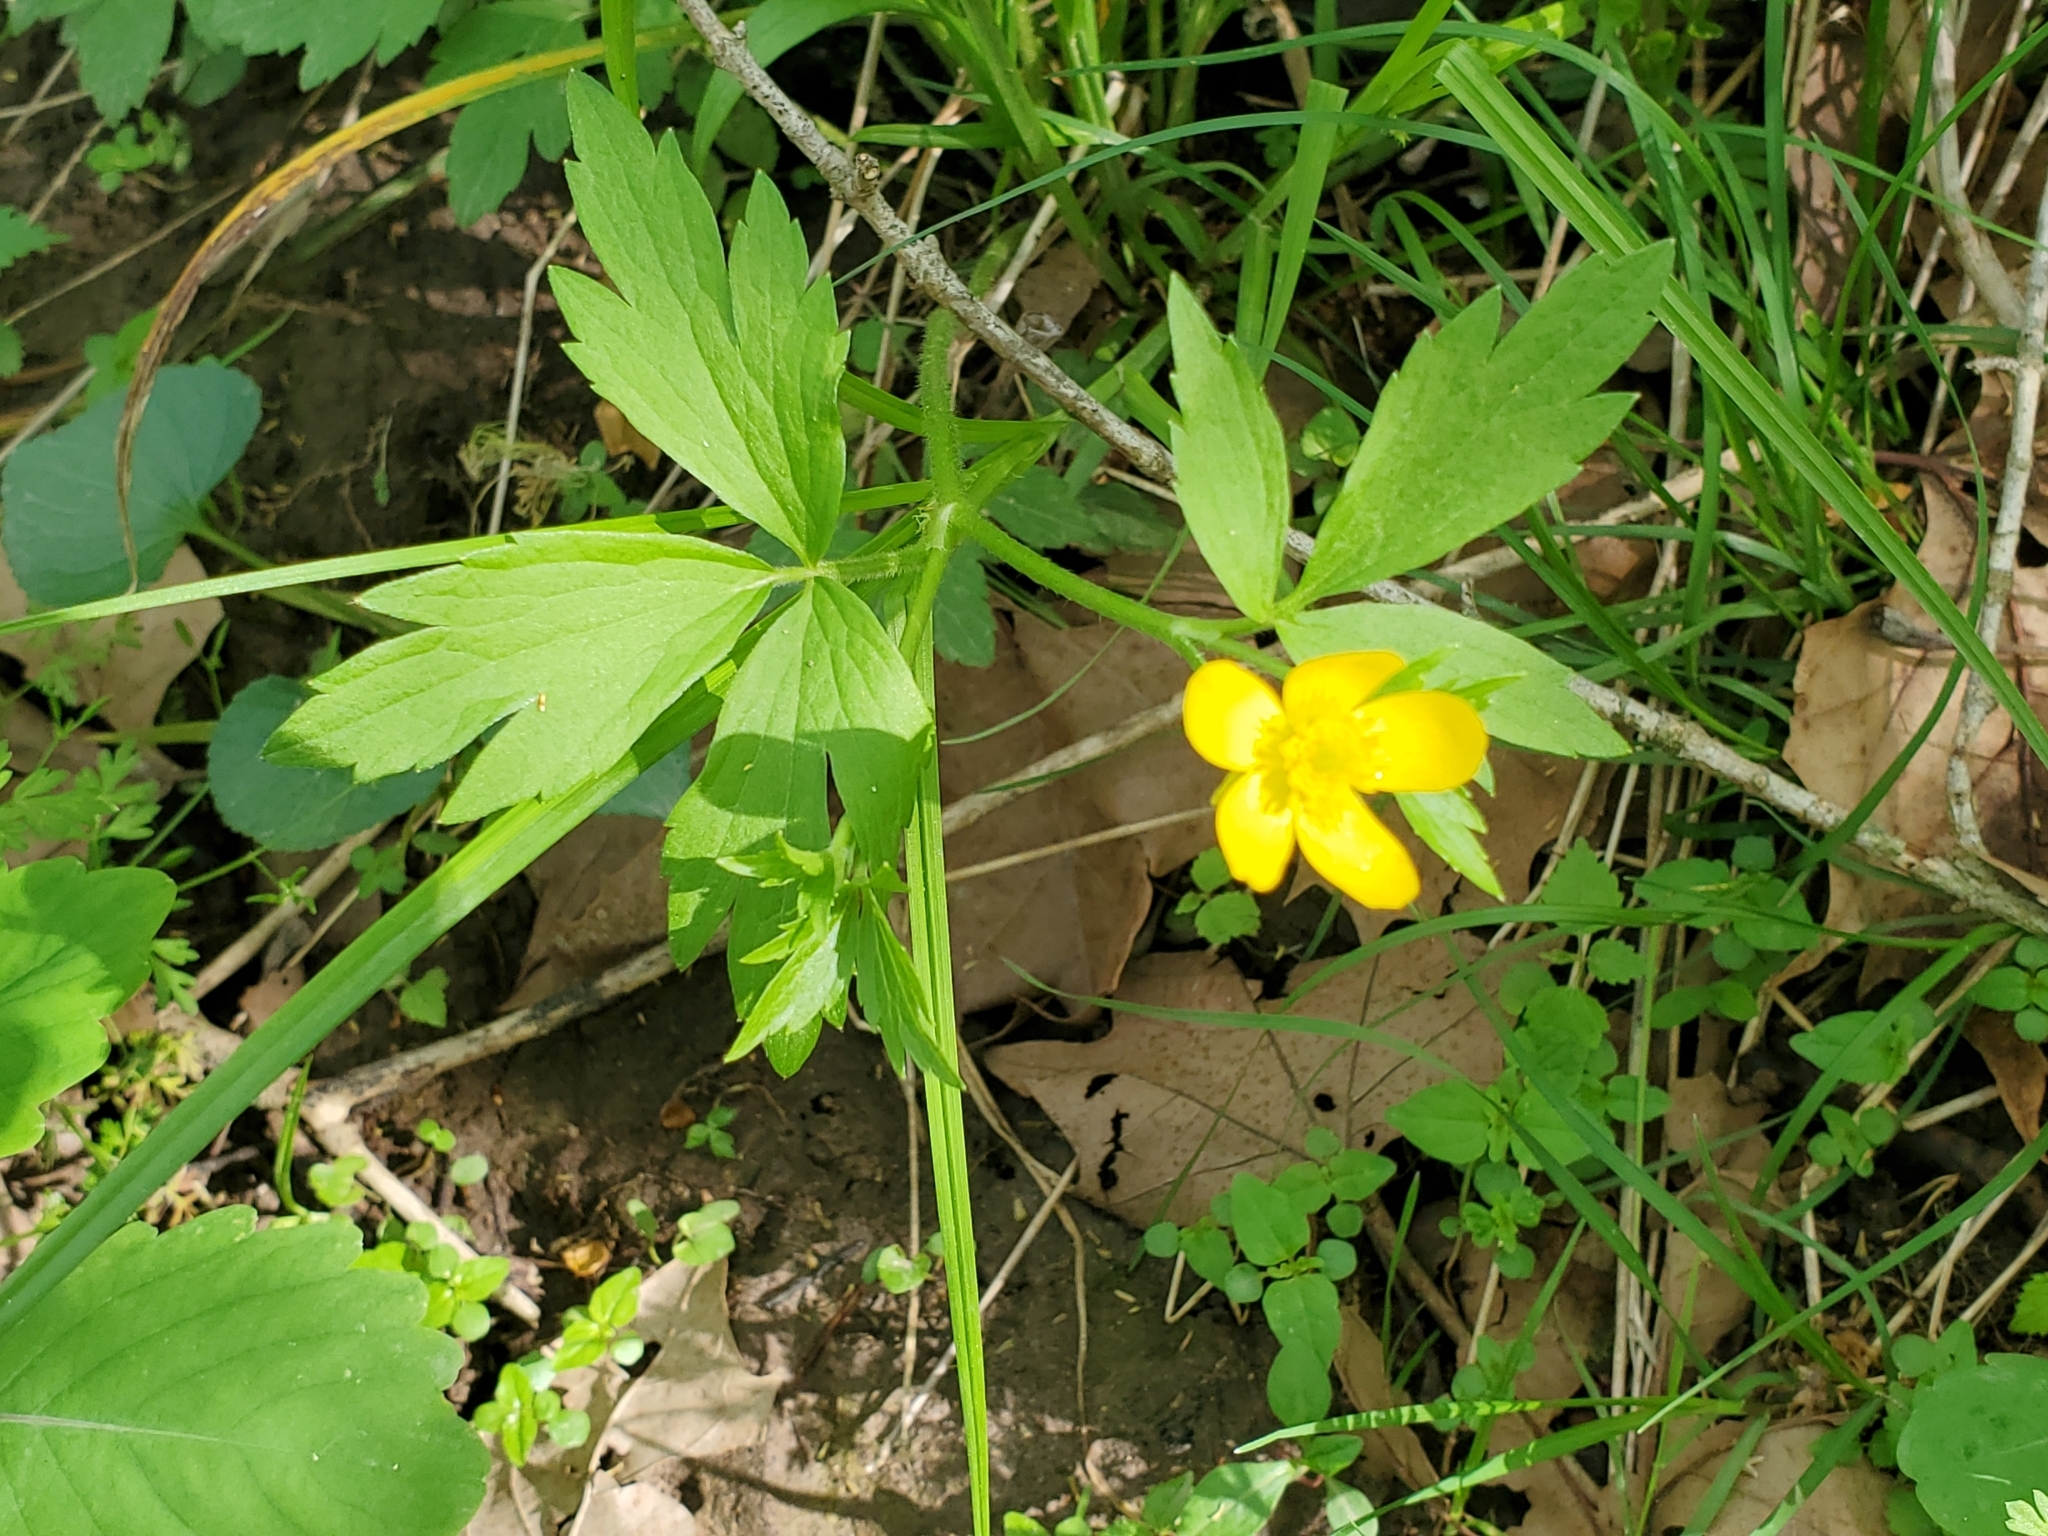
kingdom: Plantae
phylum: Tracheophyta
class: Magnoliopsida
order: Ranunculales
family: Ranunculaceae
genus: Ranunculus
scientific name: Ranunculus hispidus
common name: Bristly buttercup
